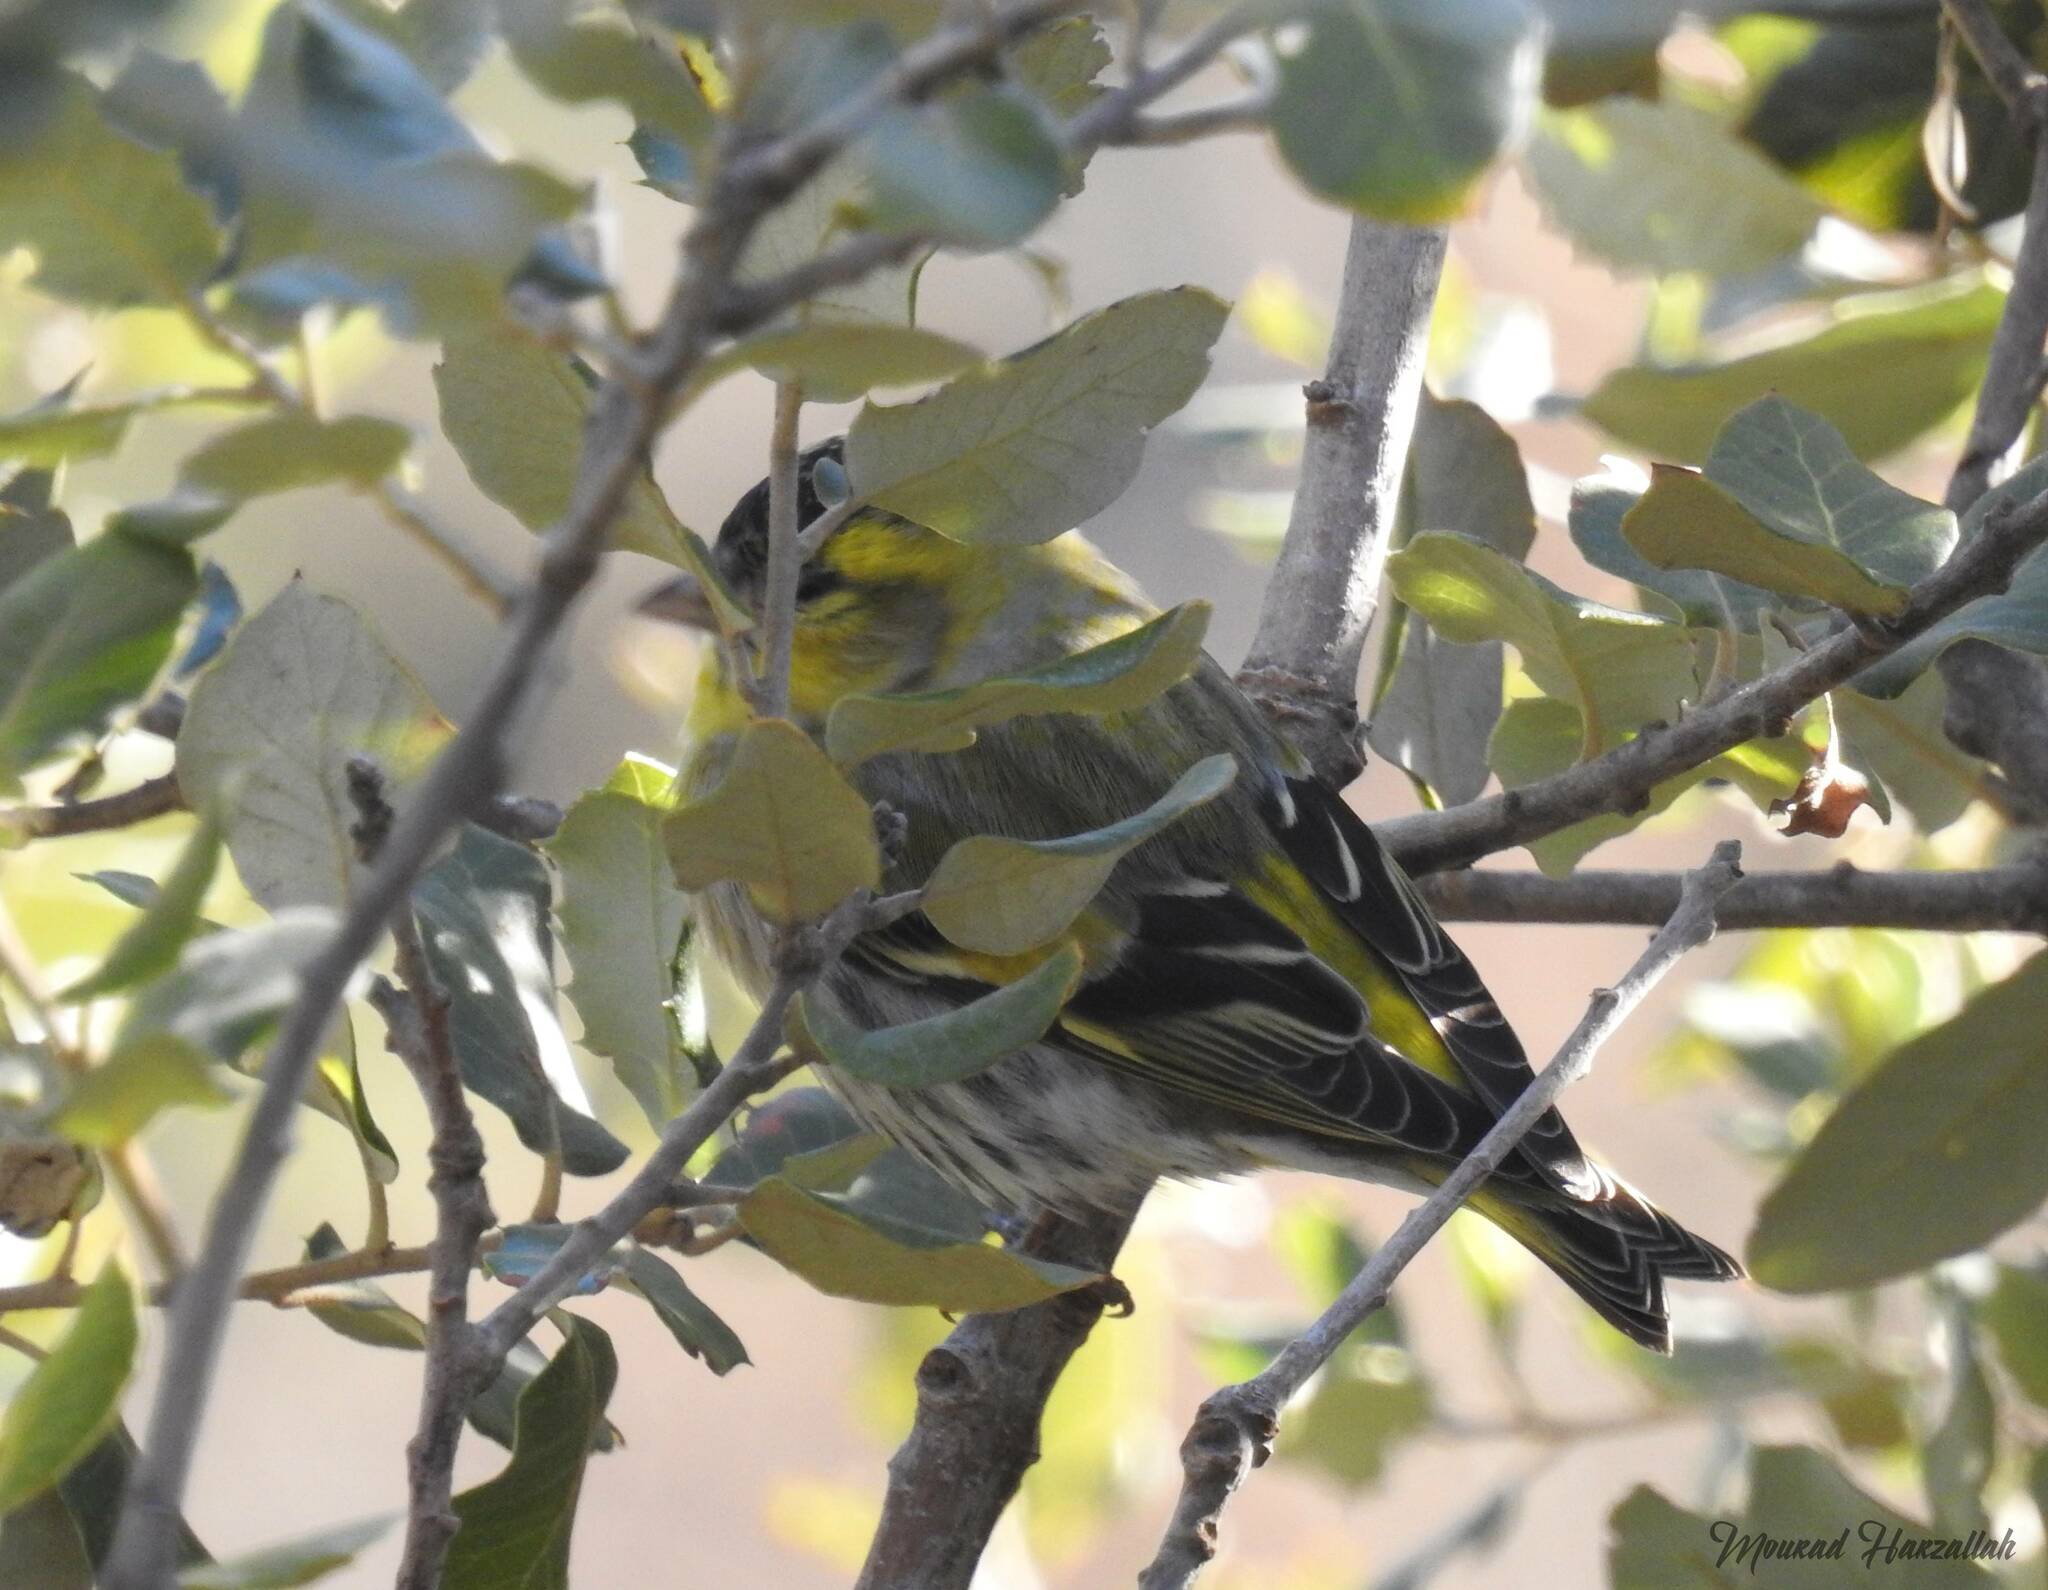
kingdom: Animalia
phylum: Chordata
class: Aves
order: Passeriformes
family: Fringillidae
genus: Spinus
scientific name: Spinus spinus
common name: Eurasian siskin
